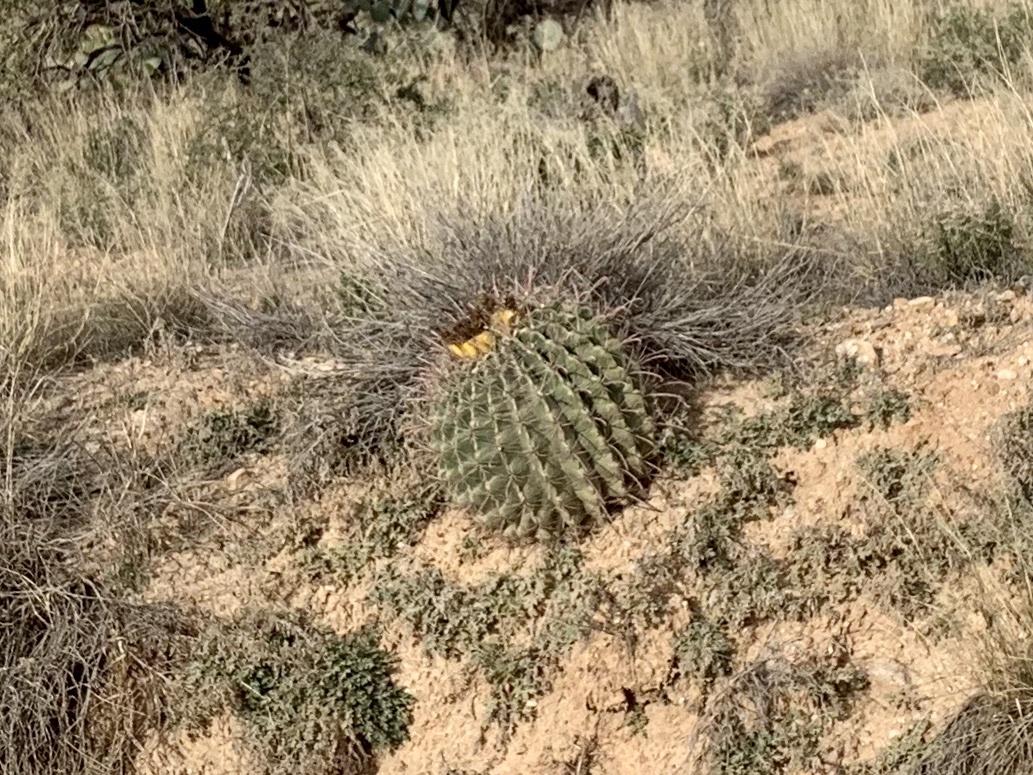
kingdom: Plantae
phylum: Tracheophyta
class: Magnoliopsida
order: Caryophyllales
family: Cactaceae
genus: Ferocactus
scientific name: Ferocactus wislizeni
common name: Candy barrel cactus
